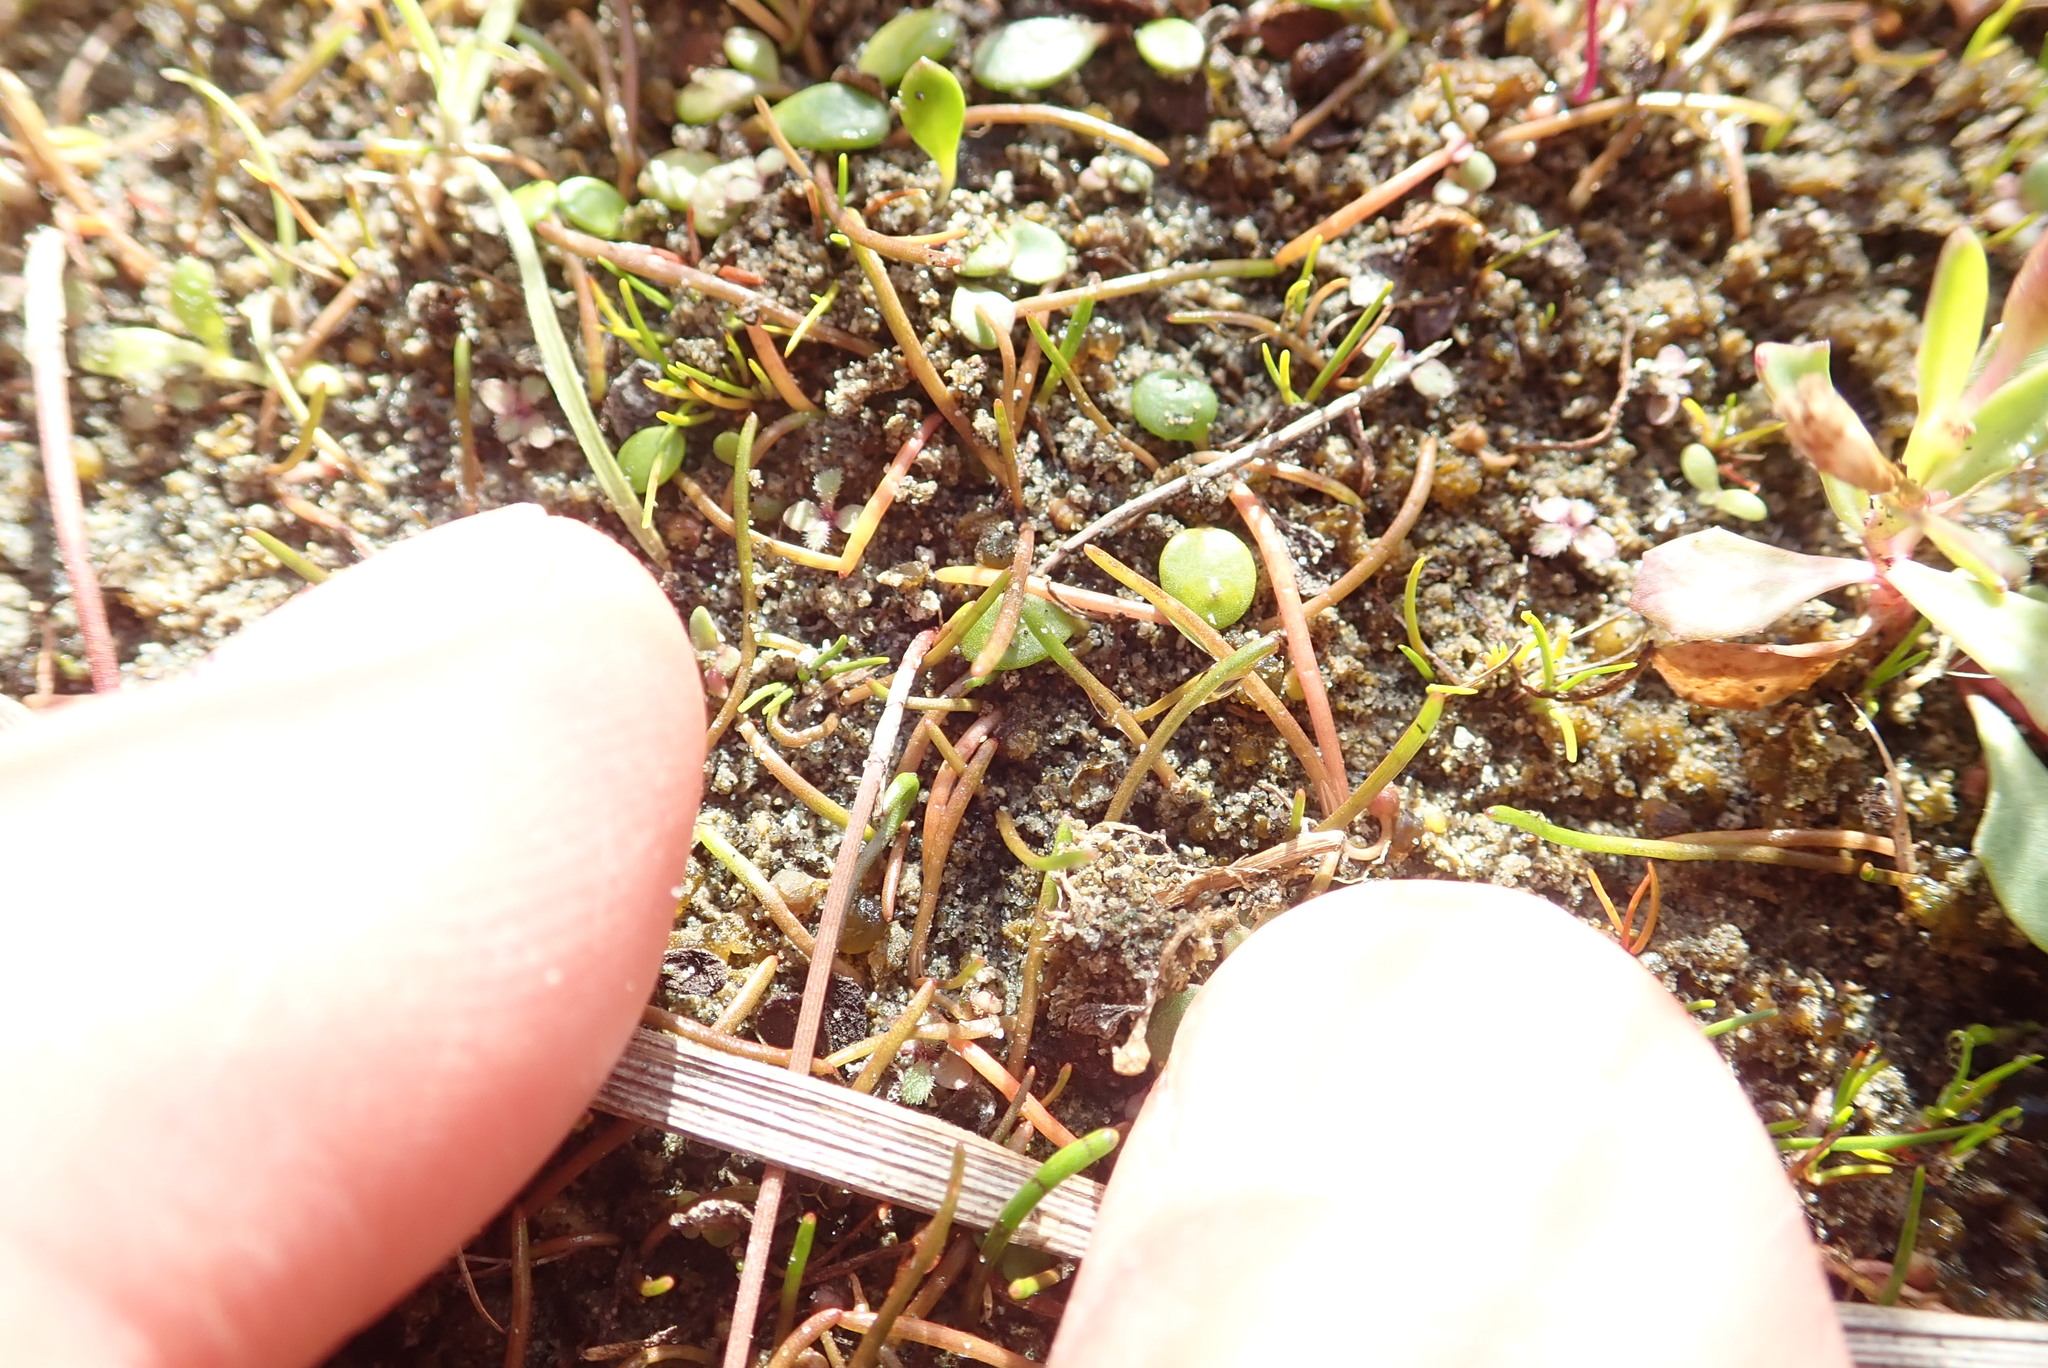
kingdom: Plantae
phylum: Tracheophyta
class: Liliopsida
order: Alismatales
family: Juncaginaceae
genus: Triglochin
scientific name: Triglochin striata
